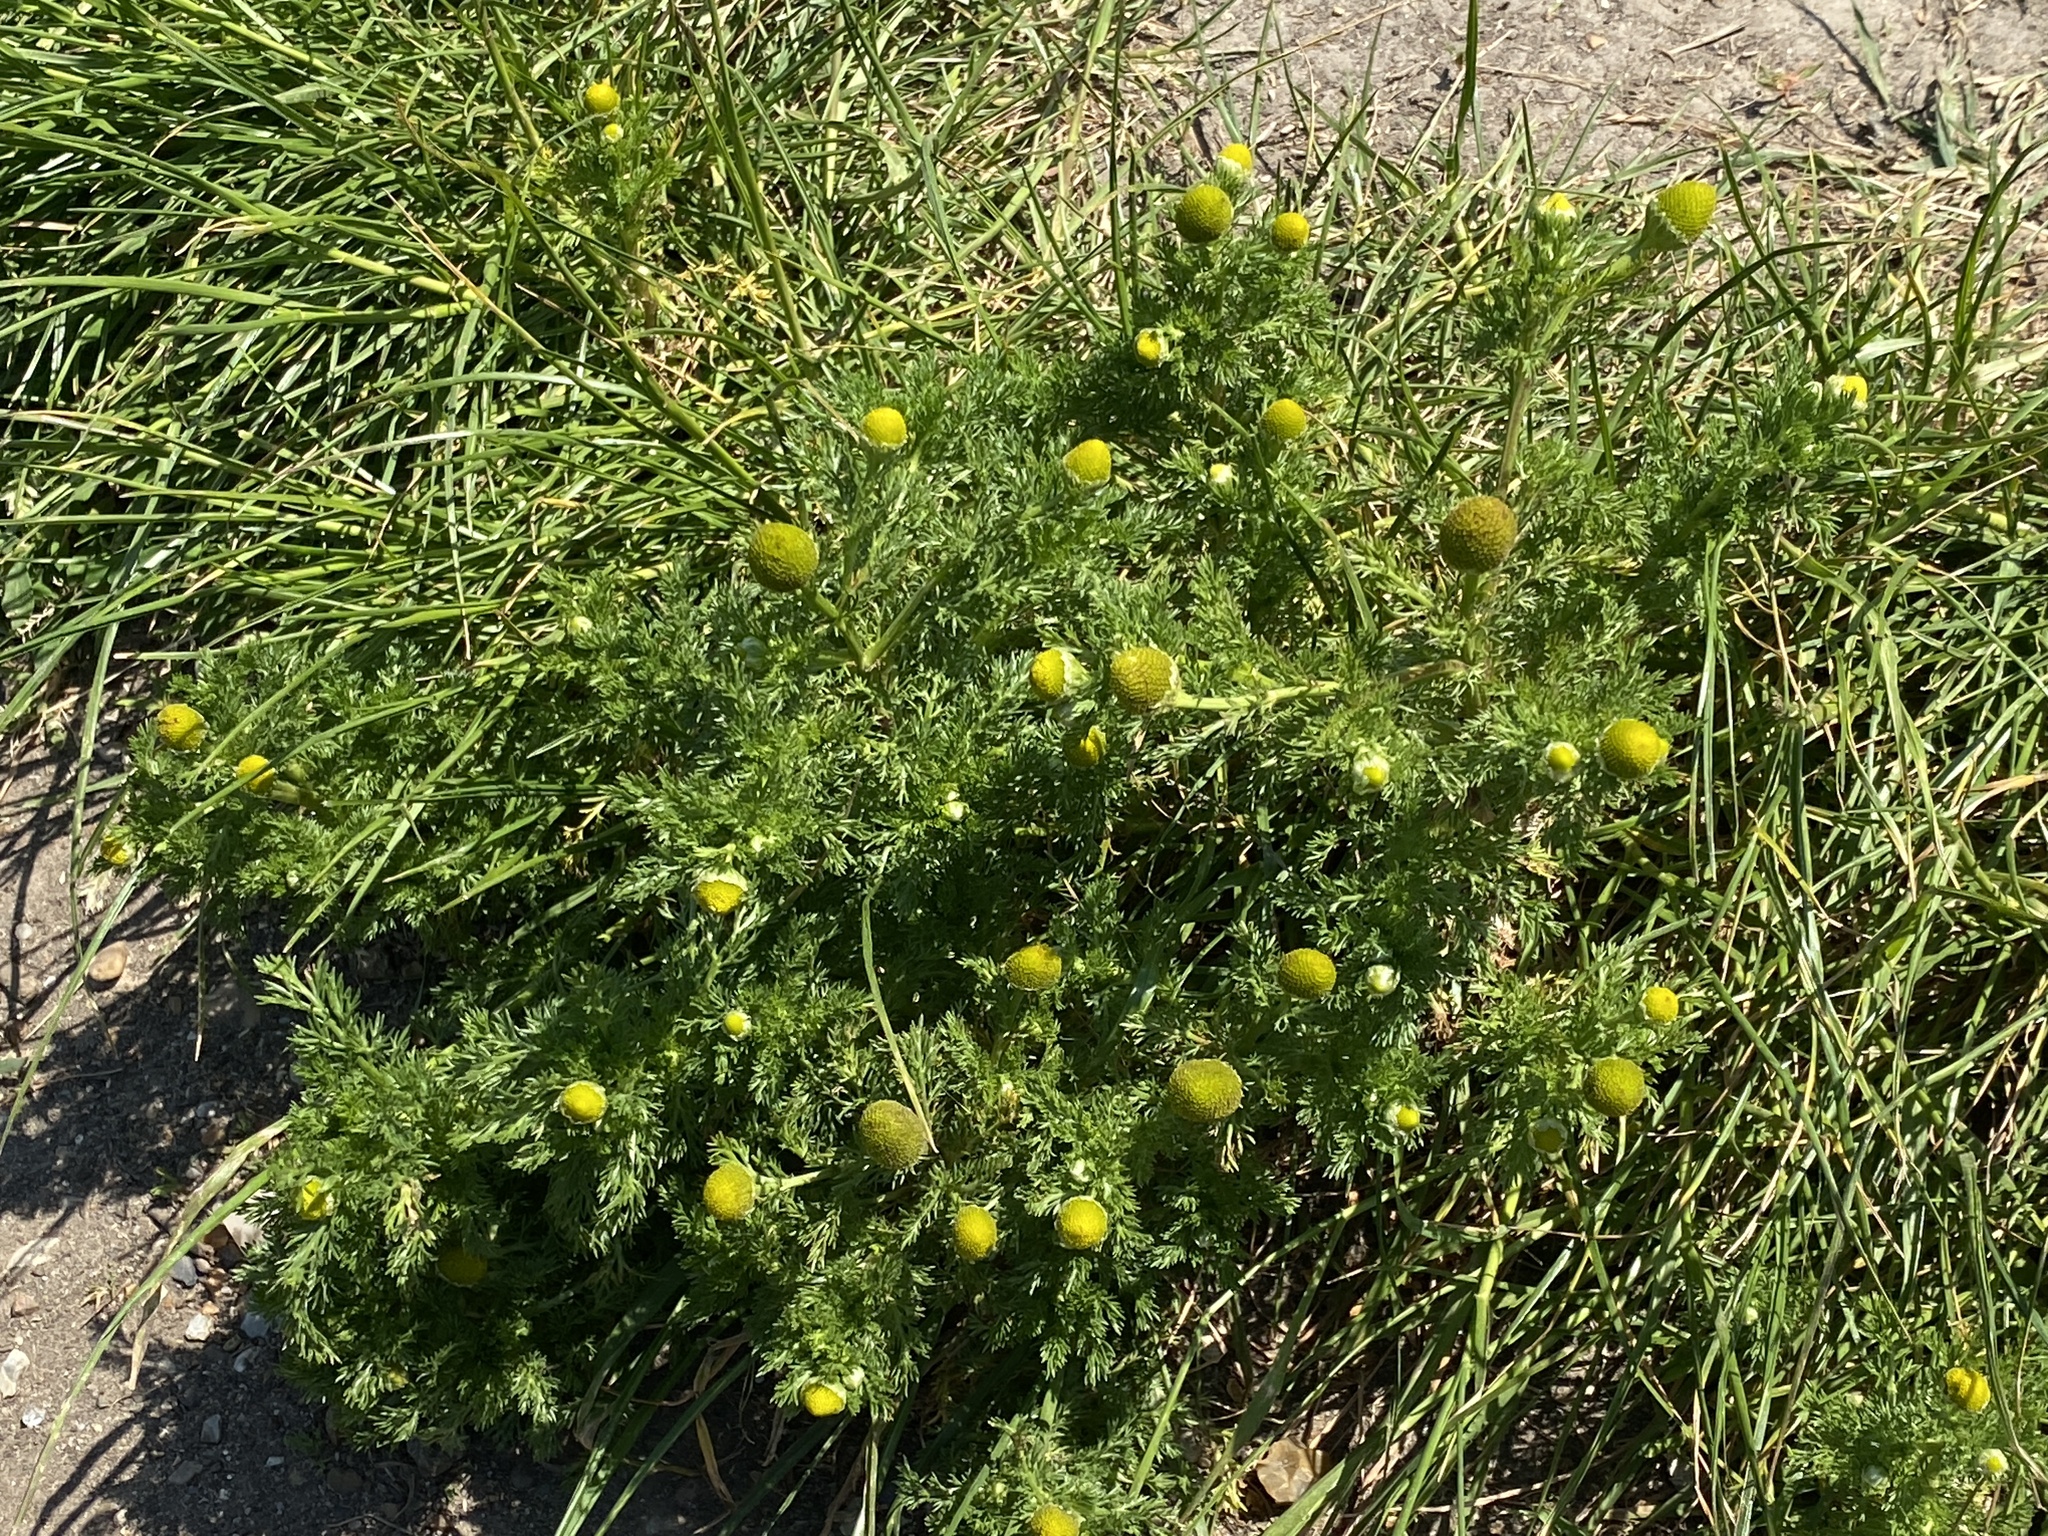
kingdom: Plantae
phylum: Tracheophyta
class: Magnoliopsida
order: Asterales
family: Asteraceae
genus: Matricaria
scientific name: Matricaria discoidea
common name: Disc mayweed
